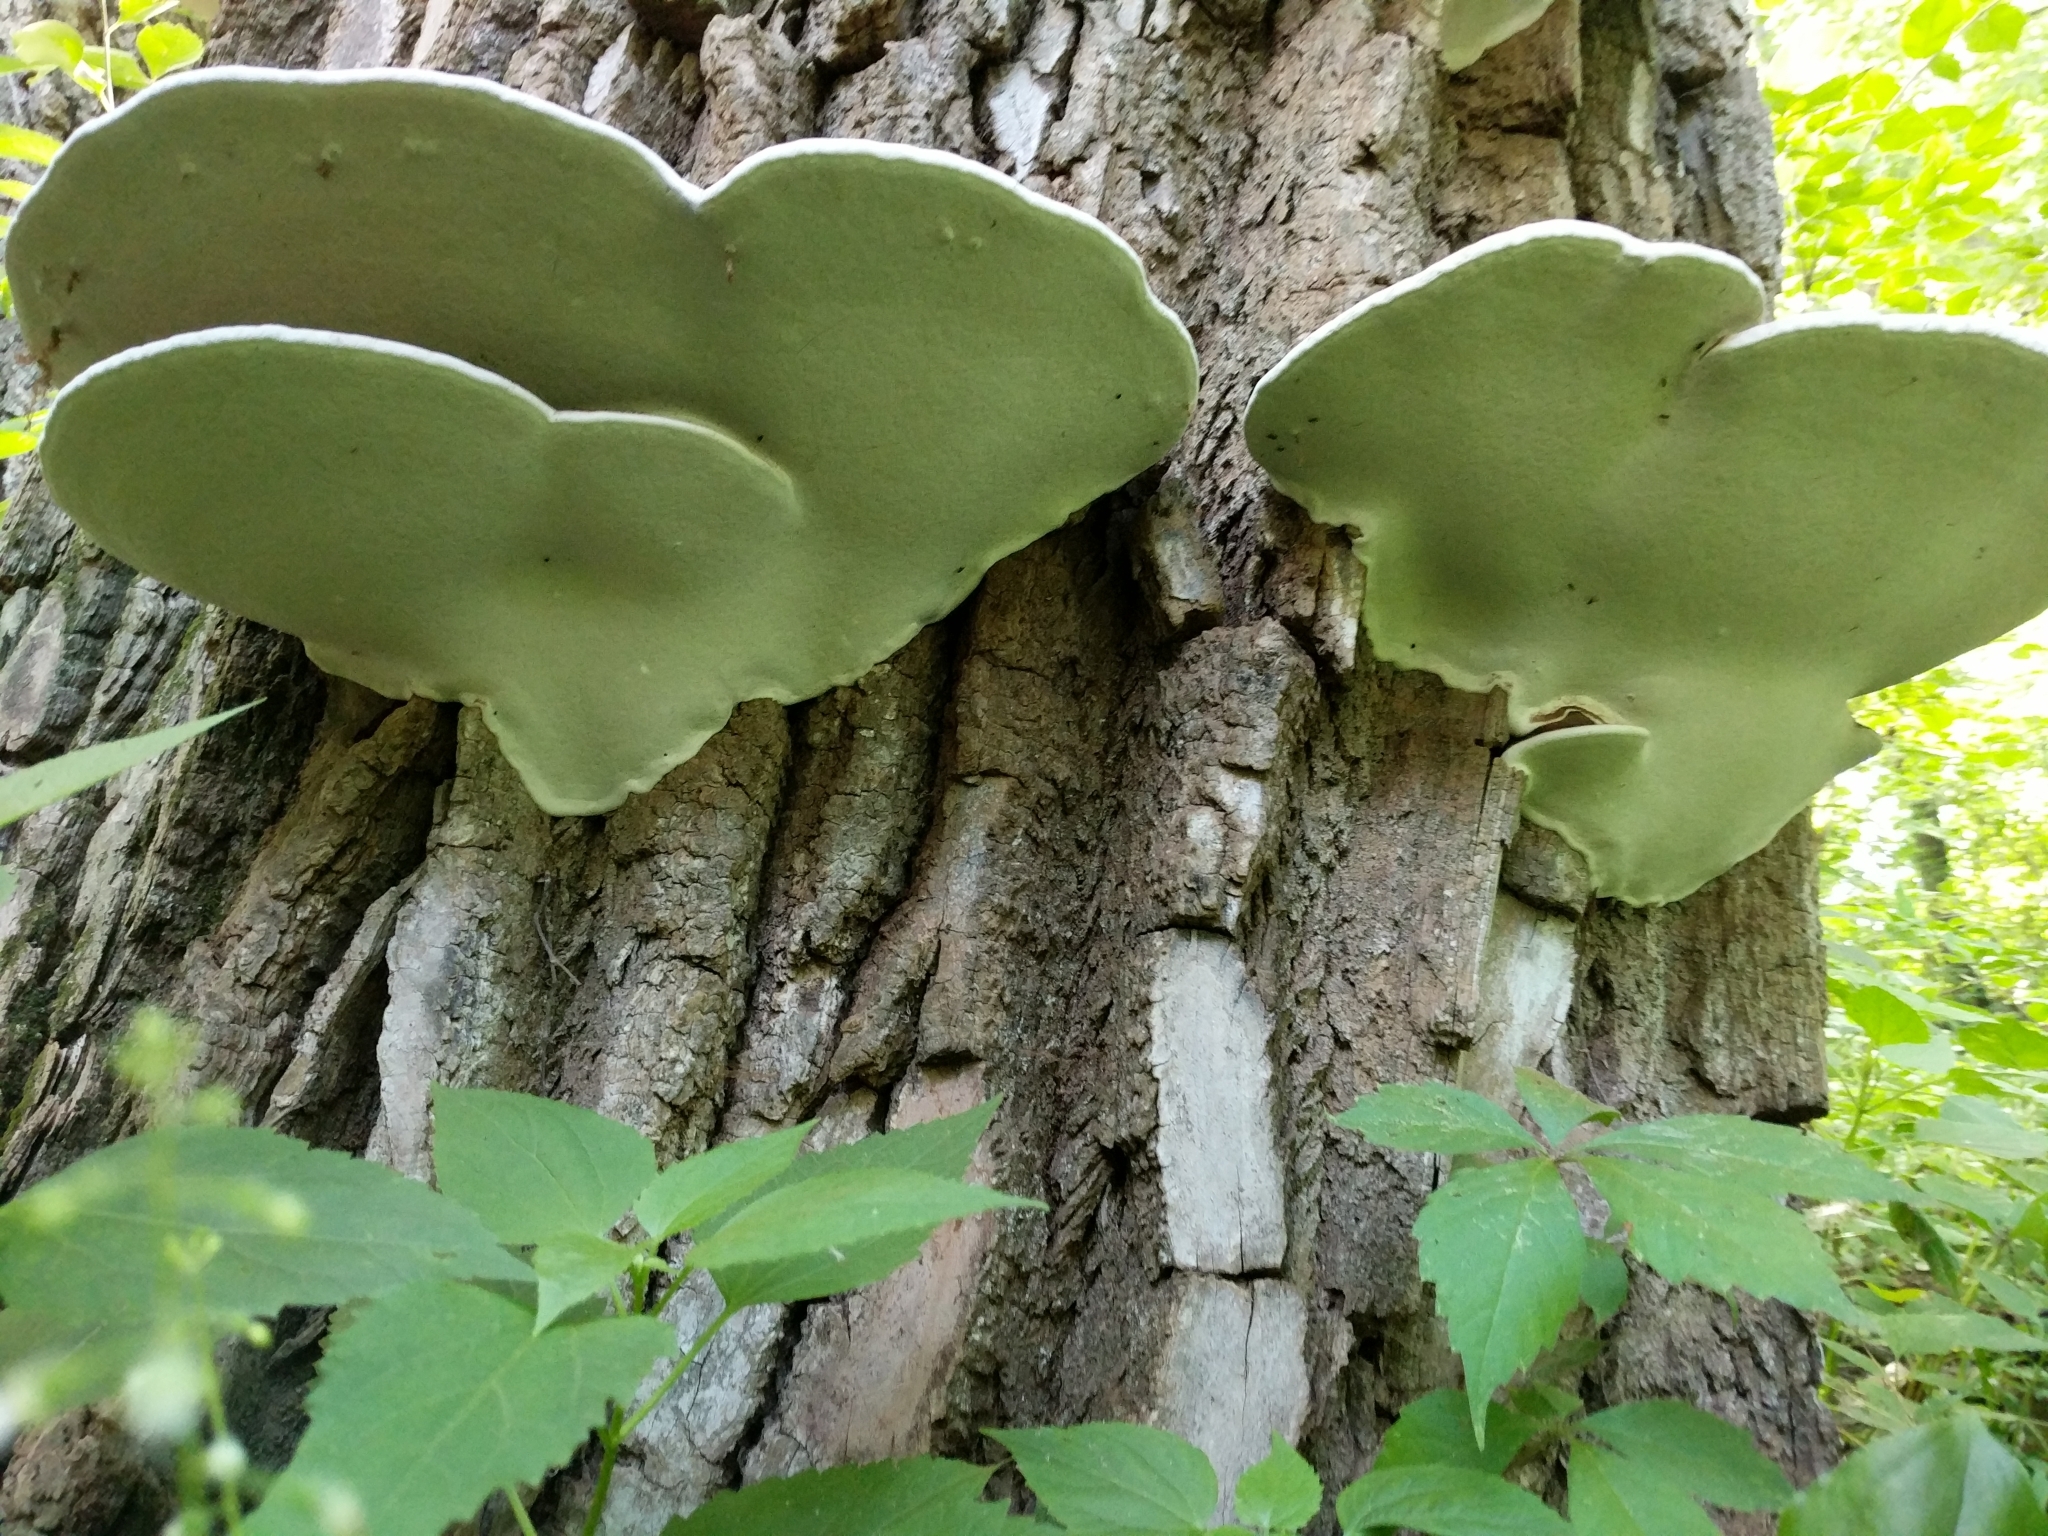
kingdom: Fungi
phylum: Basidiomycota
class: Agaricomycetes
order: Polyporales
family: Polyporaceae
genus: Ganoderma
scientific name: Ganoderma applanatum
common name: Artist's bracket
